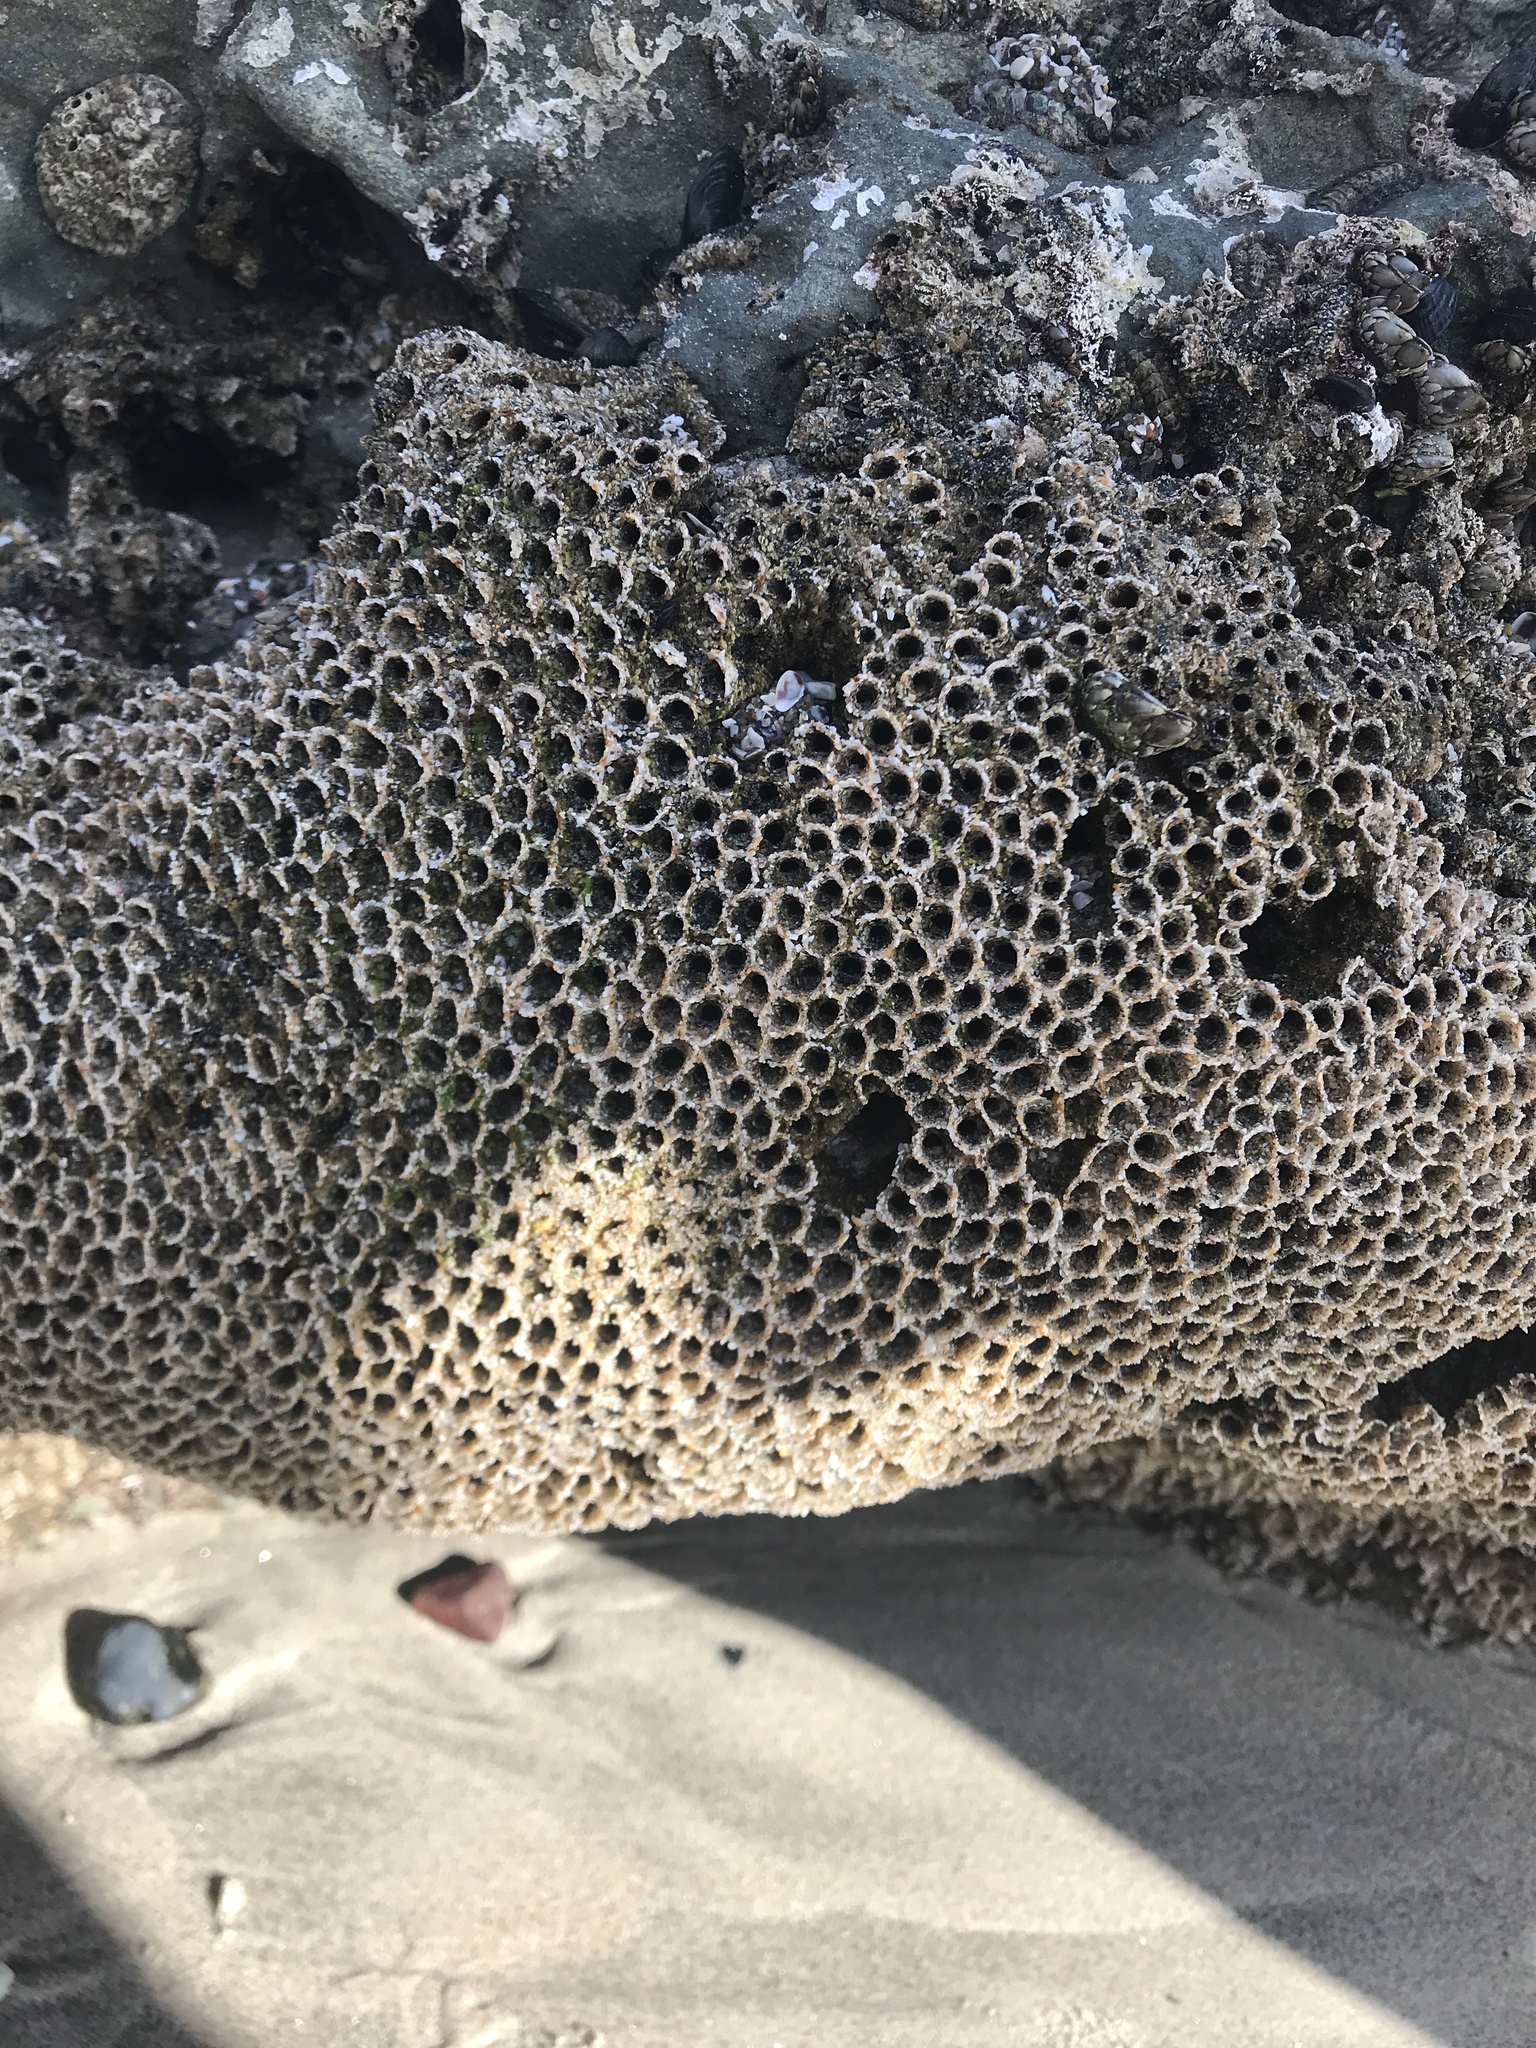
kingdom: Animalia
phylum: Annelida
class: Polychaeta
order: Sabellida
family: Sabellariidae
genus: Phragmatopoma
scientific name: Phragmatopoma californica
